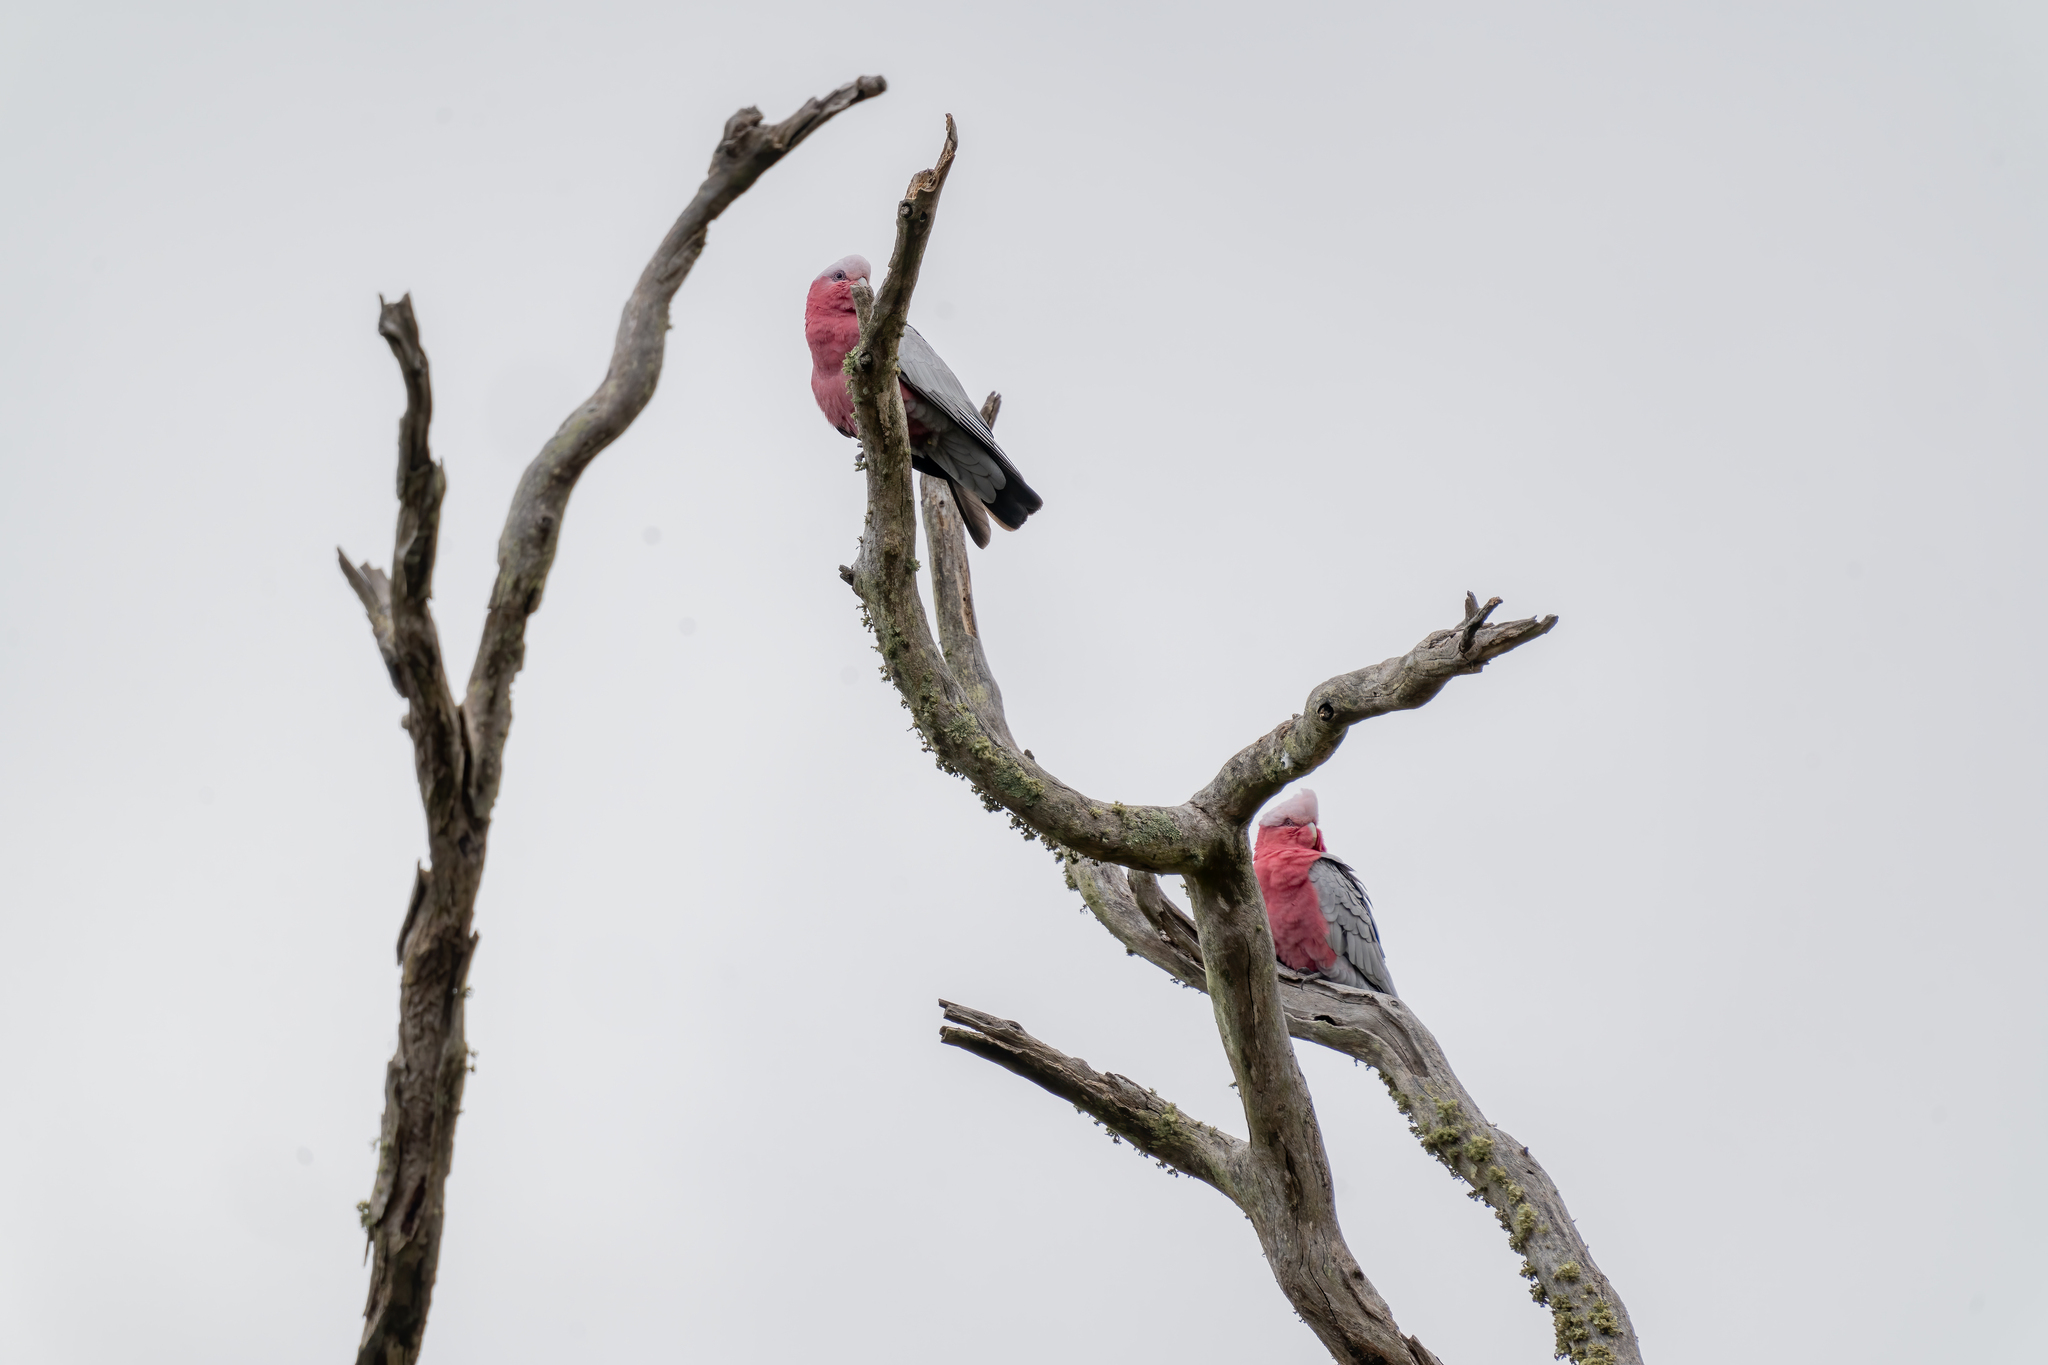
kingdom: Animalia
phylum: Chordata
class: Aves
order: Psittaciformes
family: Psittacidae
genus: Eolophus
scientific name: Eolophus roseicapilla
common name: Galah
